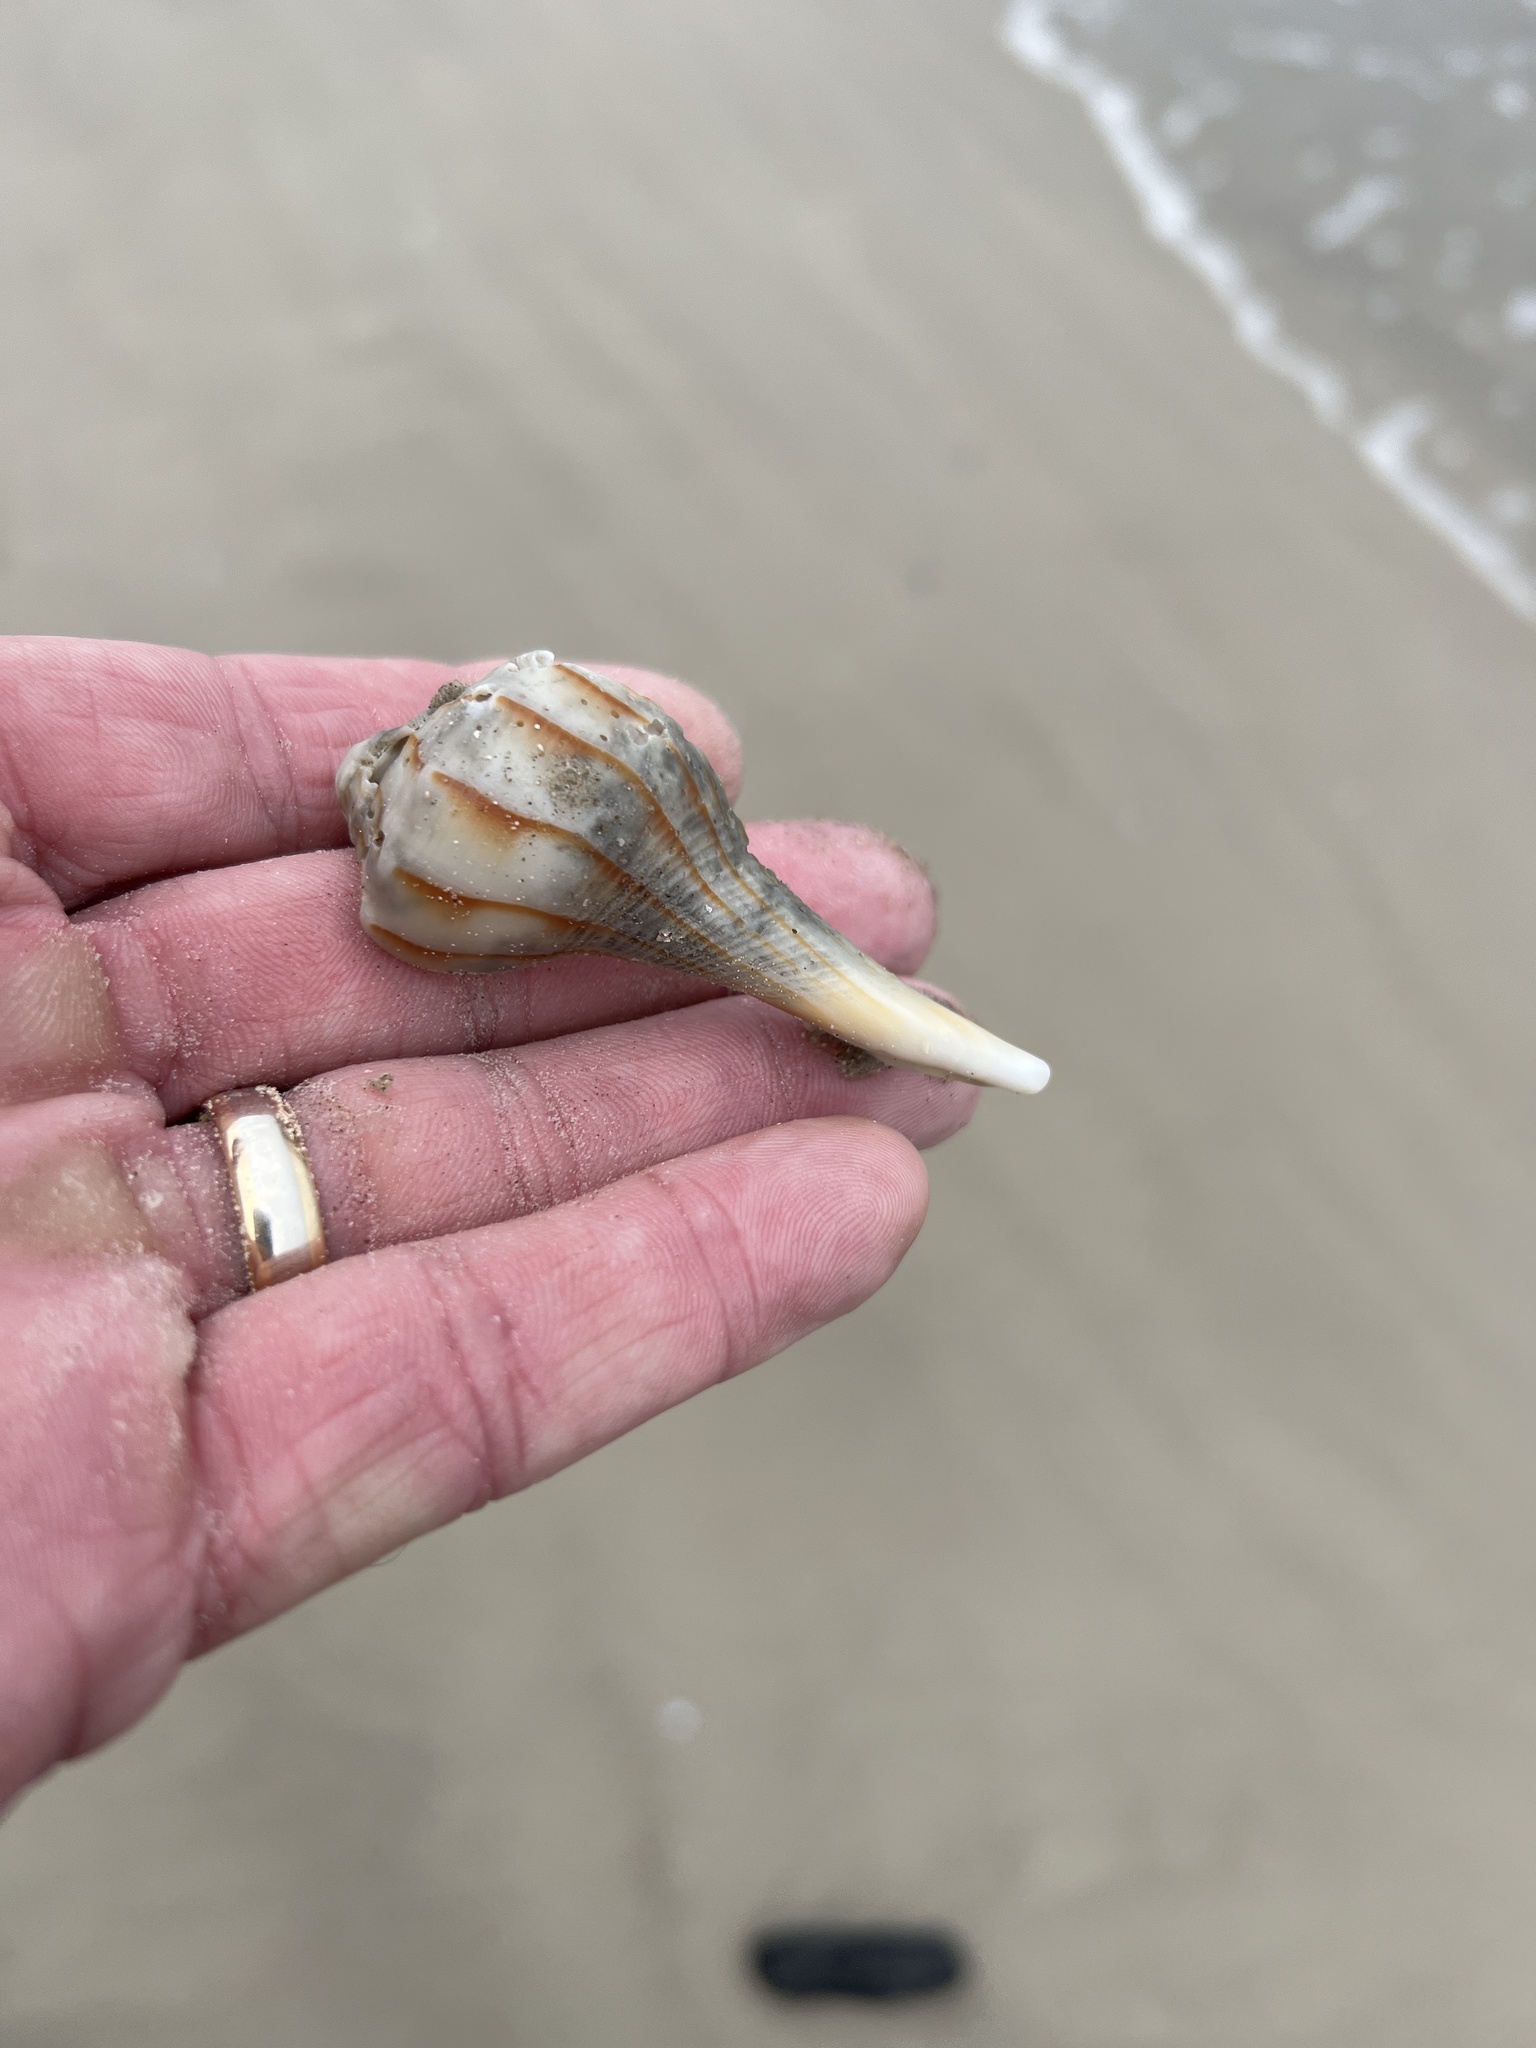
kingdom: Animalia
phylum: Mollusca
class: Gastropoda
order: Neogastropoda
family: Busyconidae
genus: Sinistrofulgur
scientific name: Sinistrofulgur pulleyi
